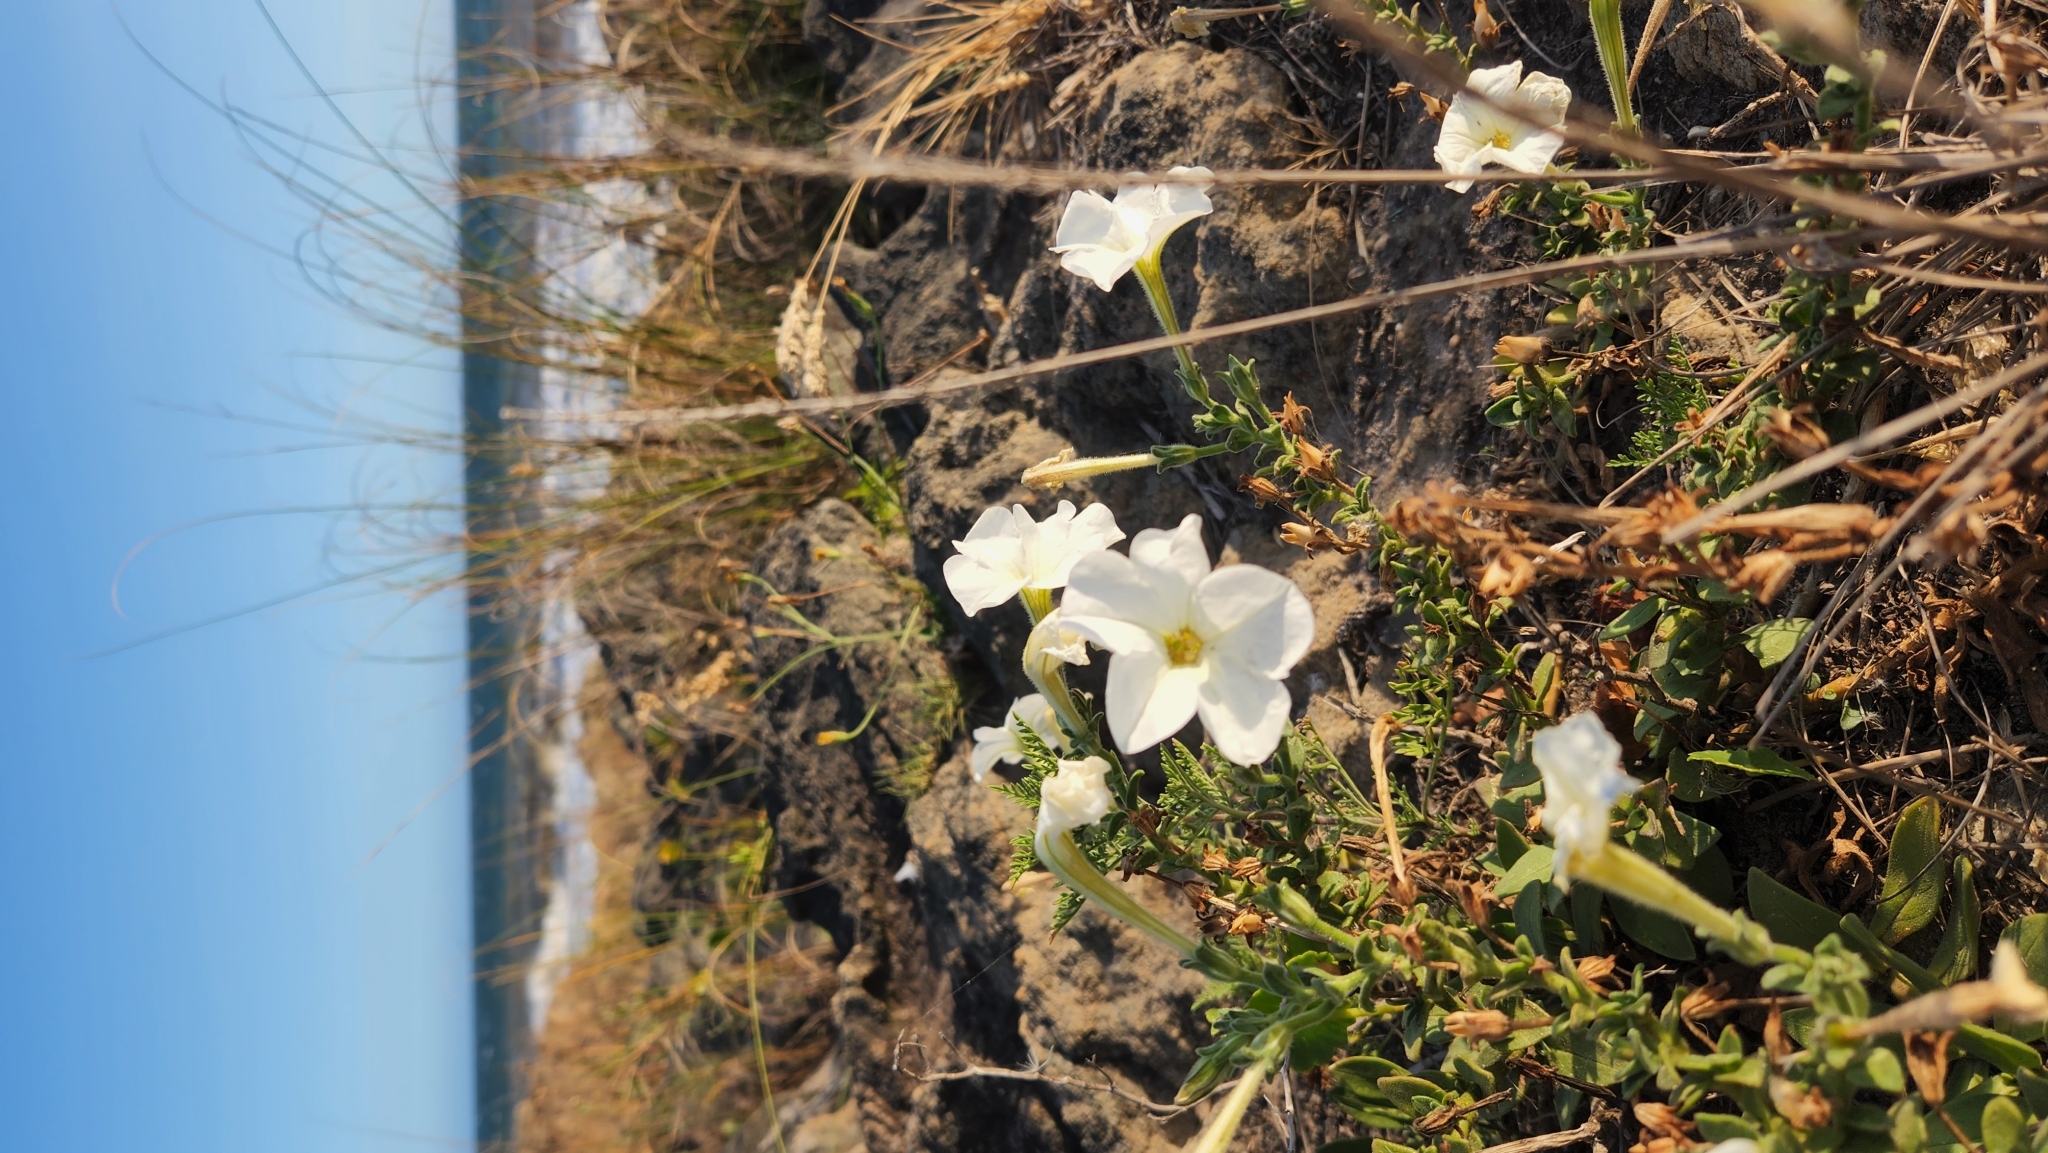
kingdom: Plantae
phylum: Tracheophyta
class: Magnoliopsida
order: Solanales
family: Solanaceae
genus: Petunia
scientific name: Petunia axillaris
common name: Large white petunia
